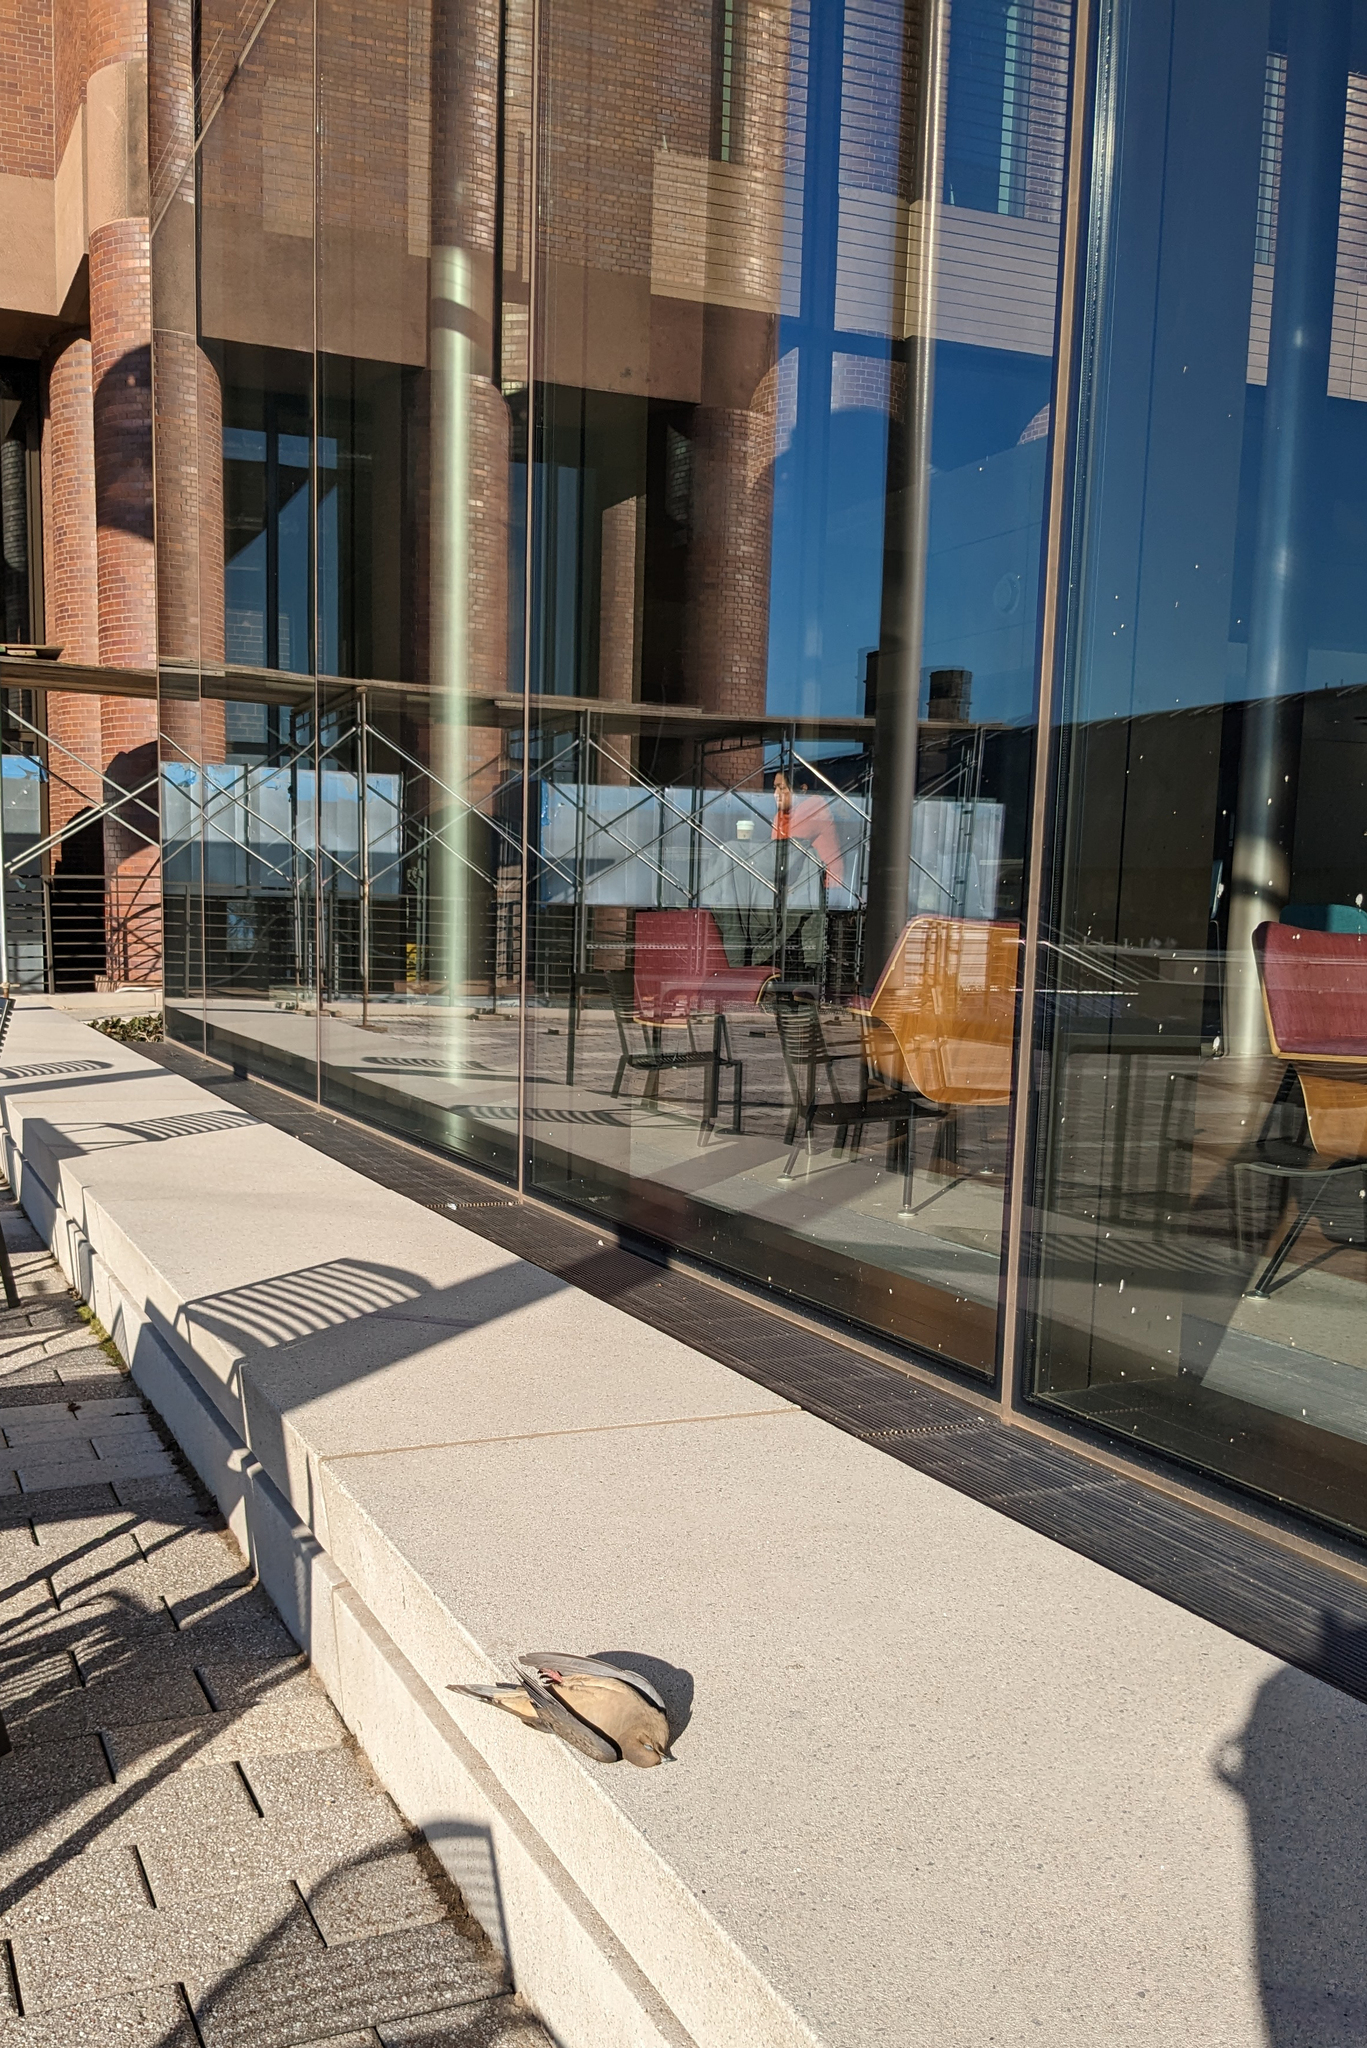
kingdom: Animalia
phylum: Chordata
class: Aves
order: Columbiformes
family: Columbidae
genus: Zenaida
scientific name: Zenaida macroura
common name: Mourning dove
